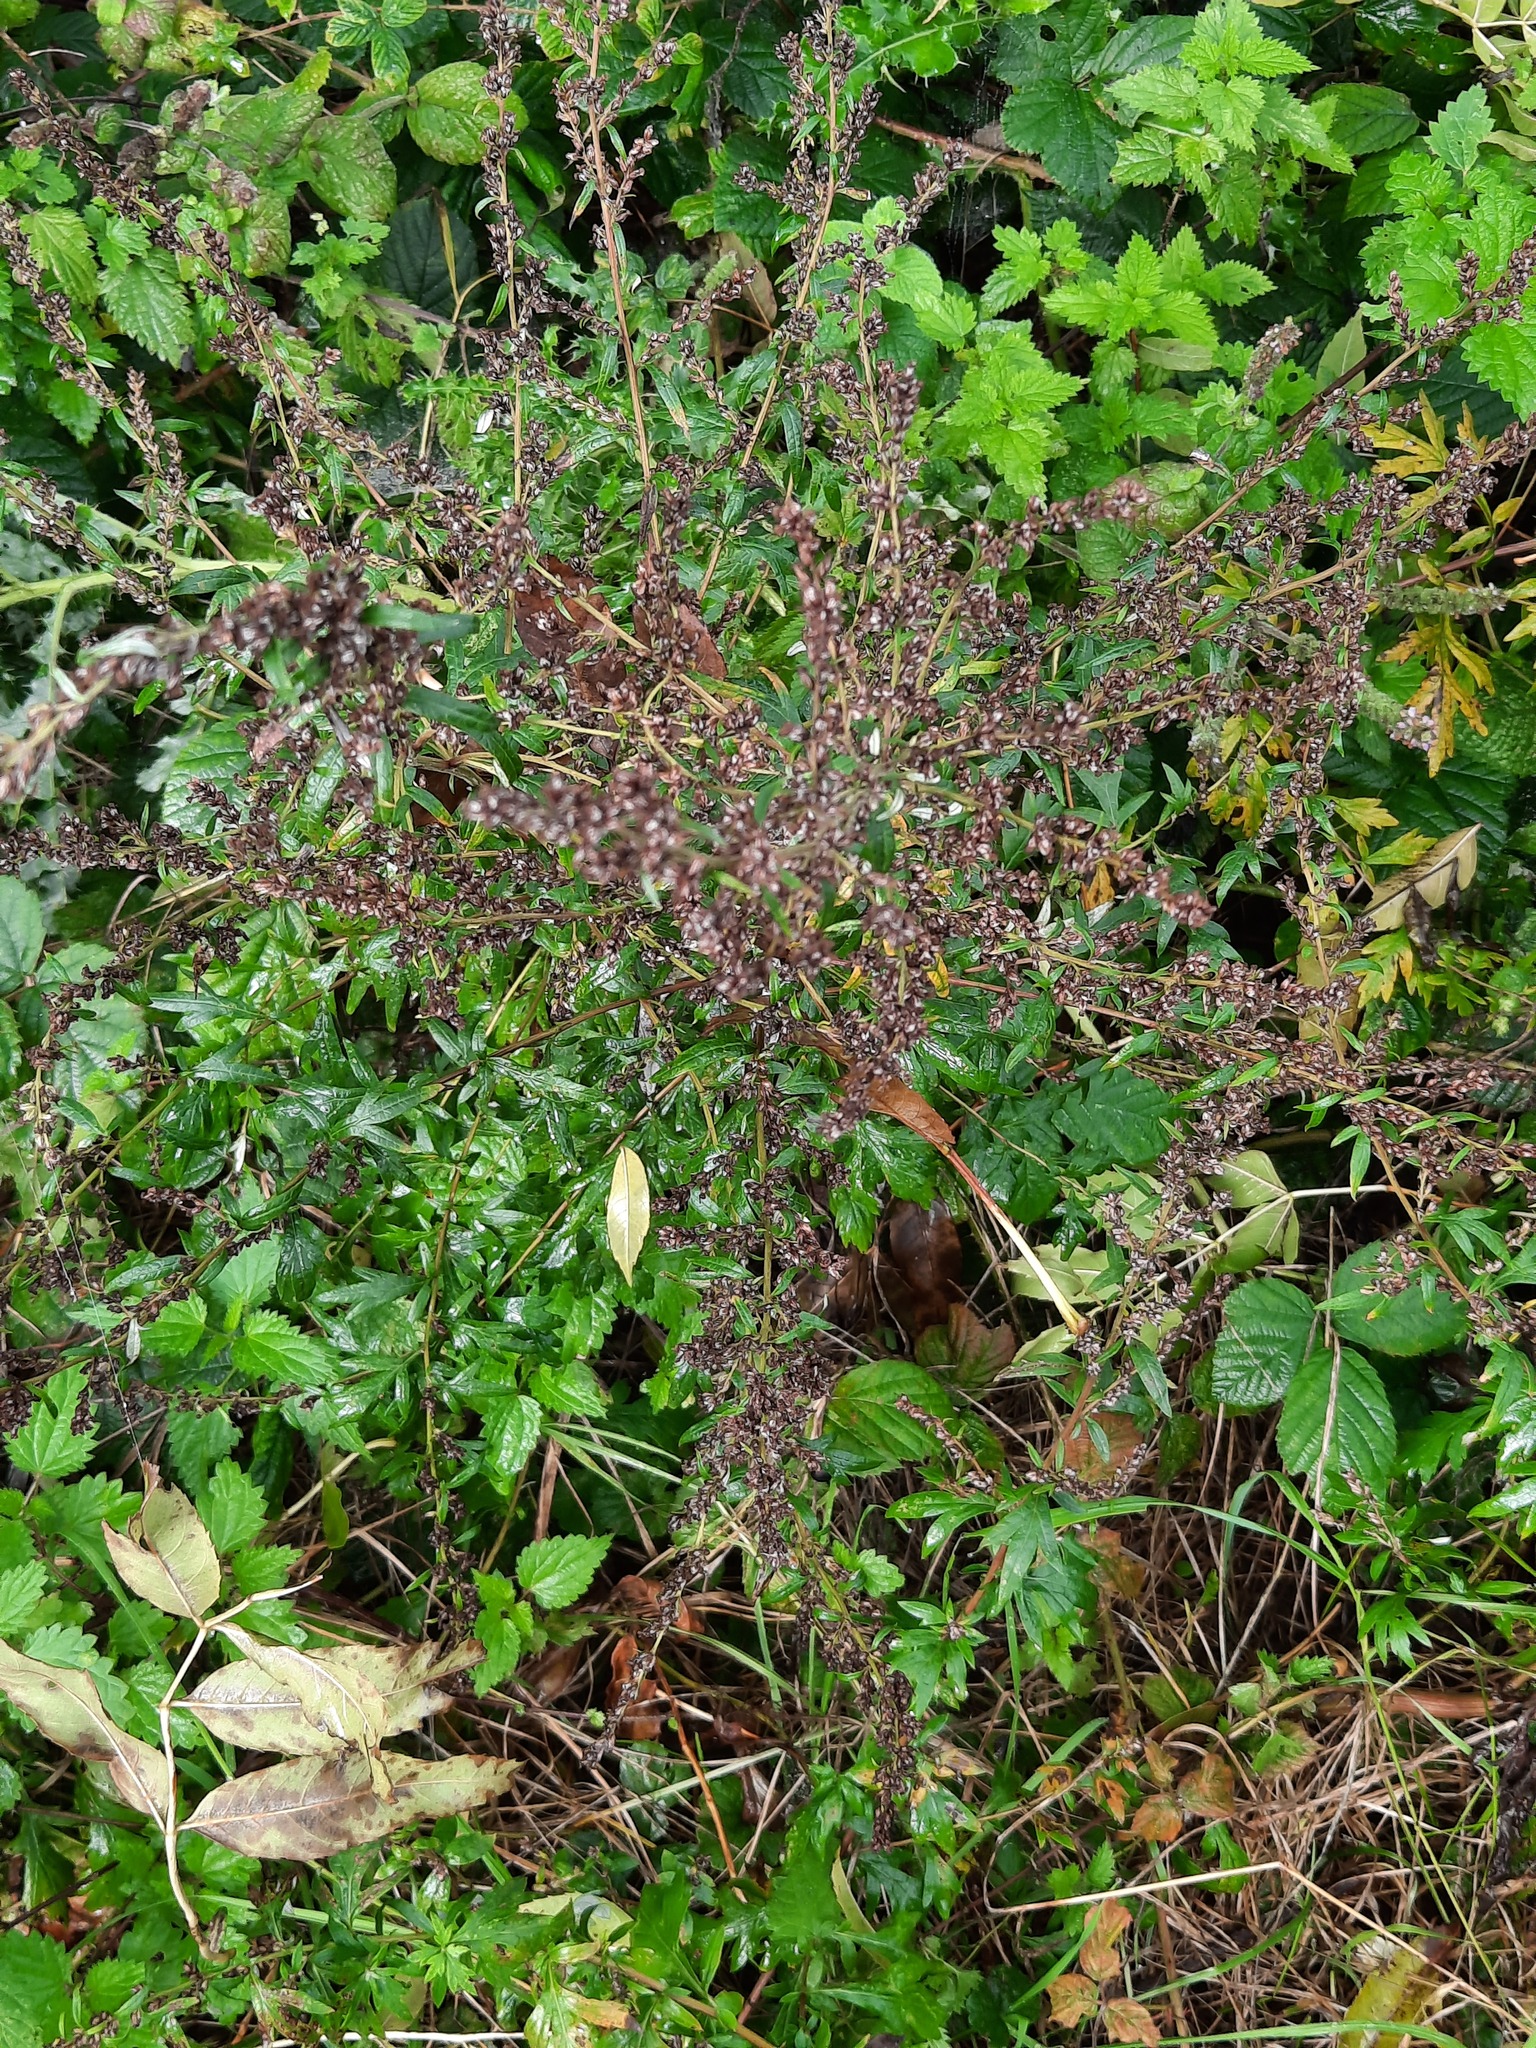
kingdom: Plantae
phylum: Tracheophyta
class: Magnoliopsida
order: Asterales
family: Asteraceae
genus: Artemisia
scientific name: Artemisia vulgaris
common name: Mugwort
